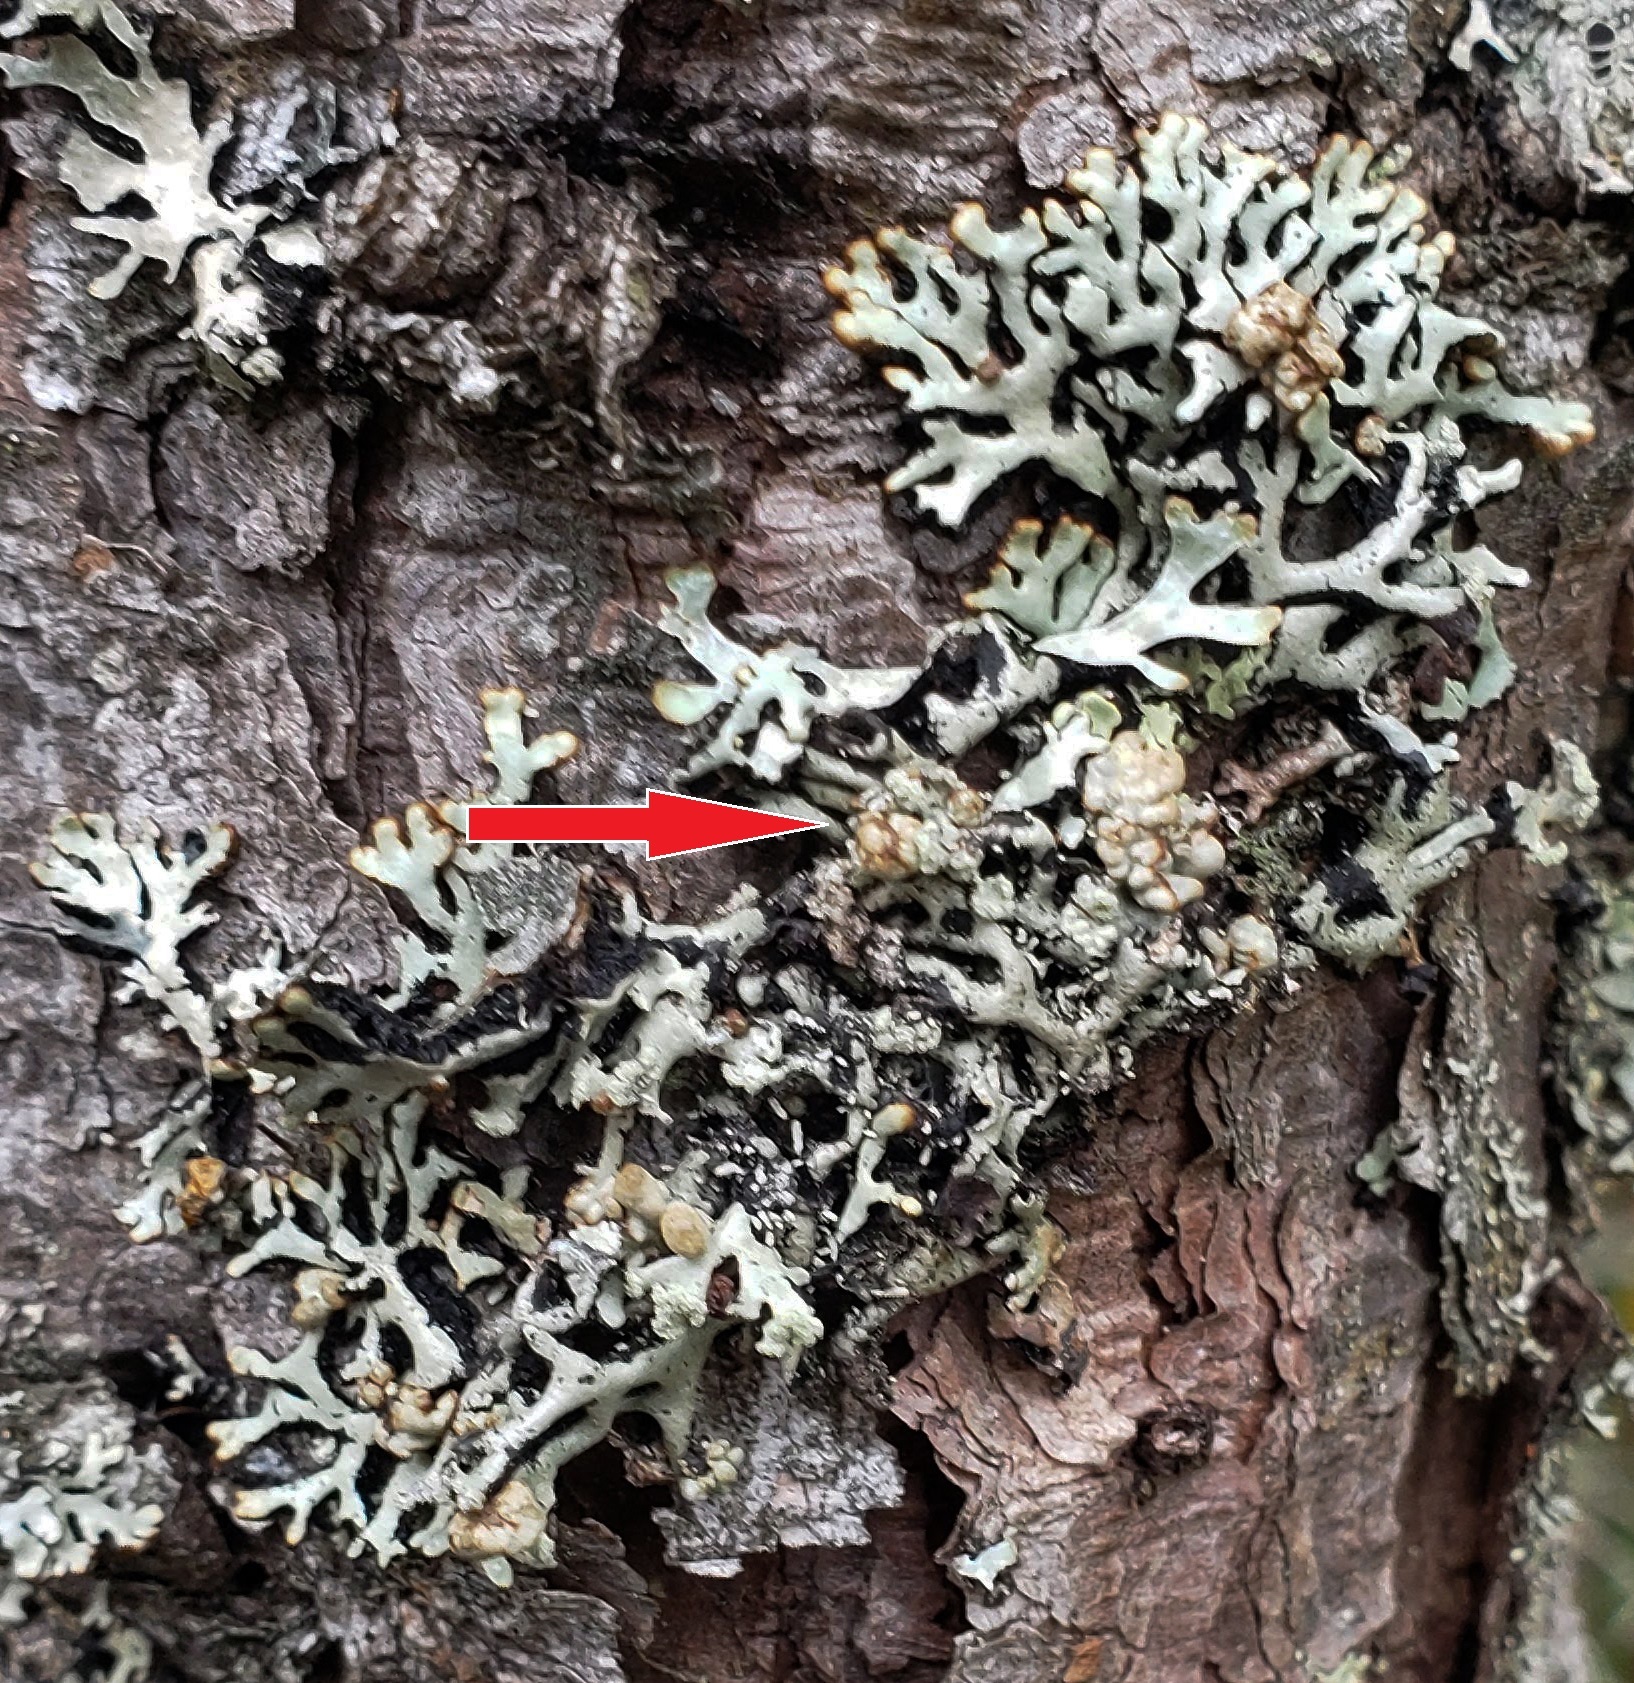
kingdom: Fungi
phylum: Basidiomycota
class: Cystobasidiomycetes
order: Cyphobasidiales
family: Cyphobasidiaceae
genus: Cyphobasidium
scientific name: Cyphobasidium hypogymniicola
